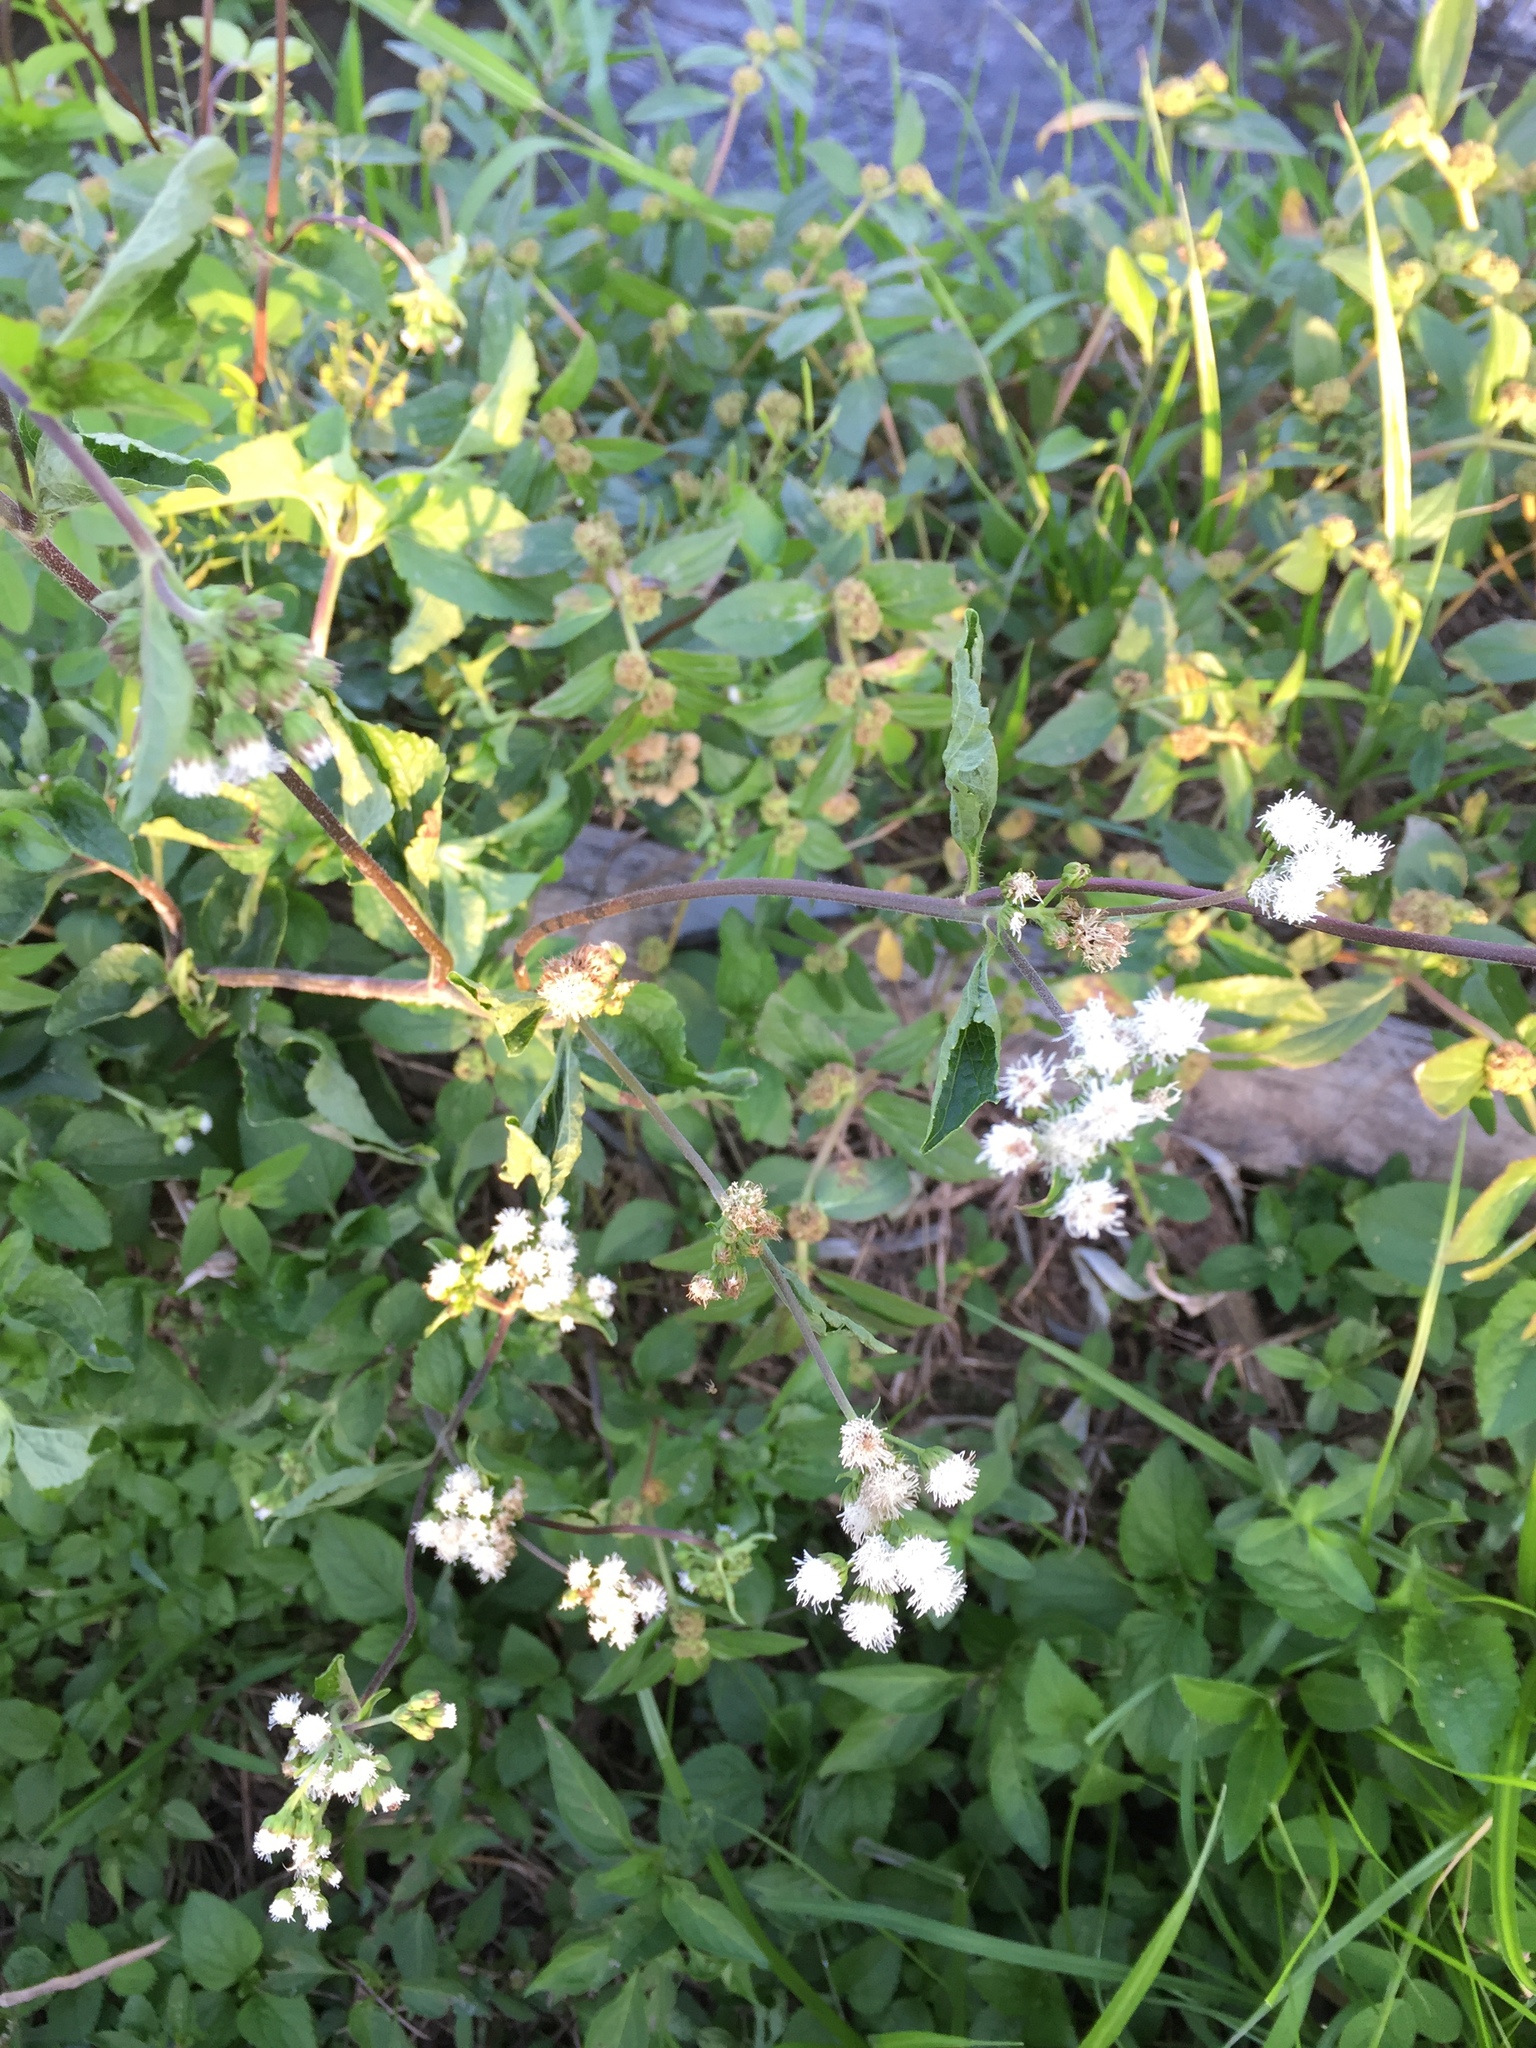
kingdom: Plantae
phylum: Tracheophyta
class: Magnoliopsida
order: Asterales
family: Asteraceae
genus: Ageratum
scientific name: Ageratum conyzoides
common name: Tropical whiteweed
